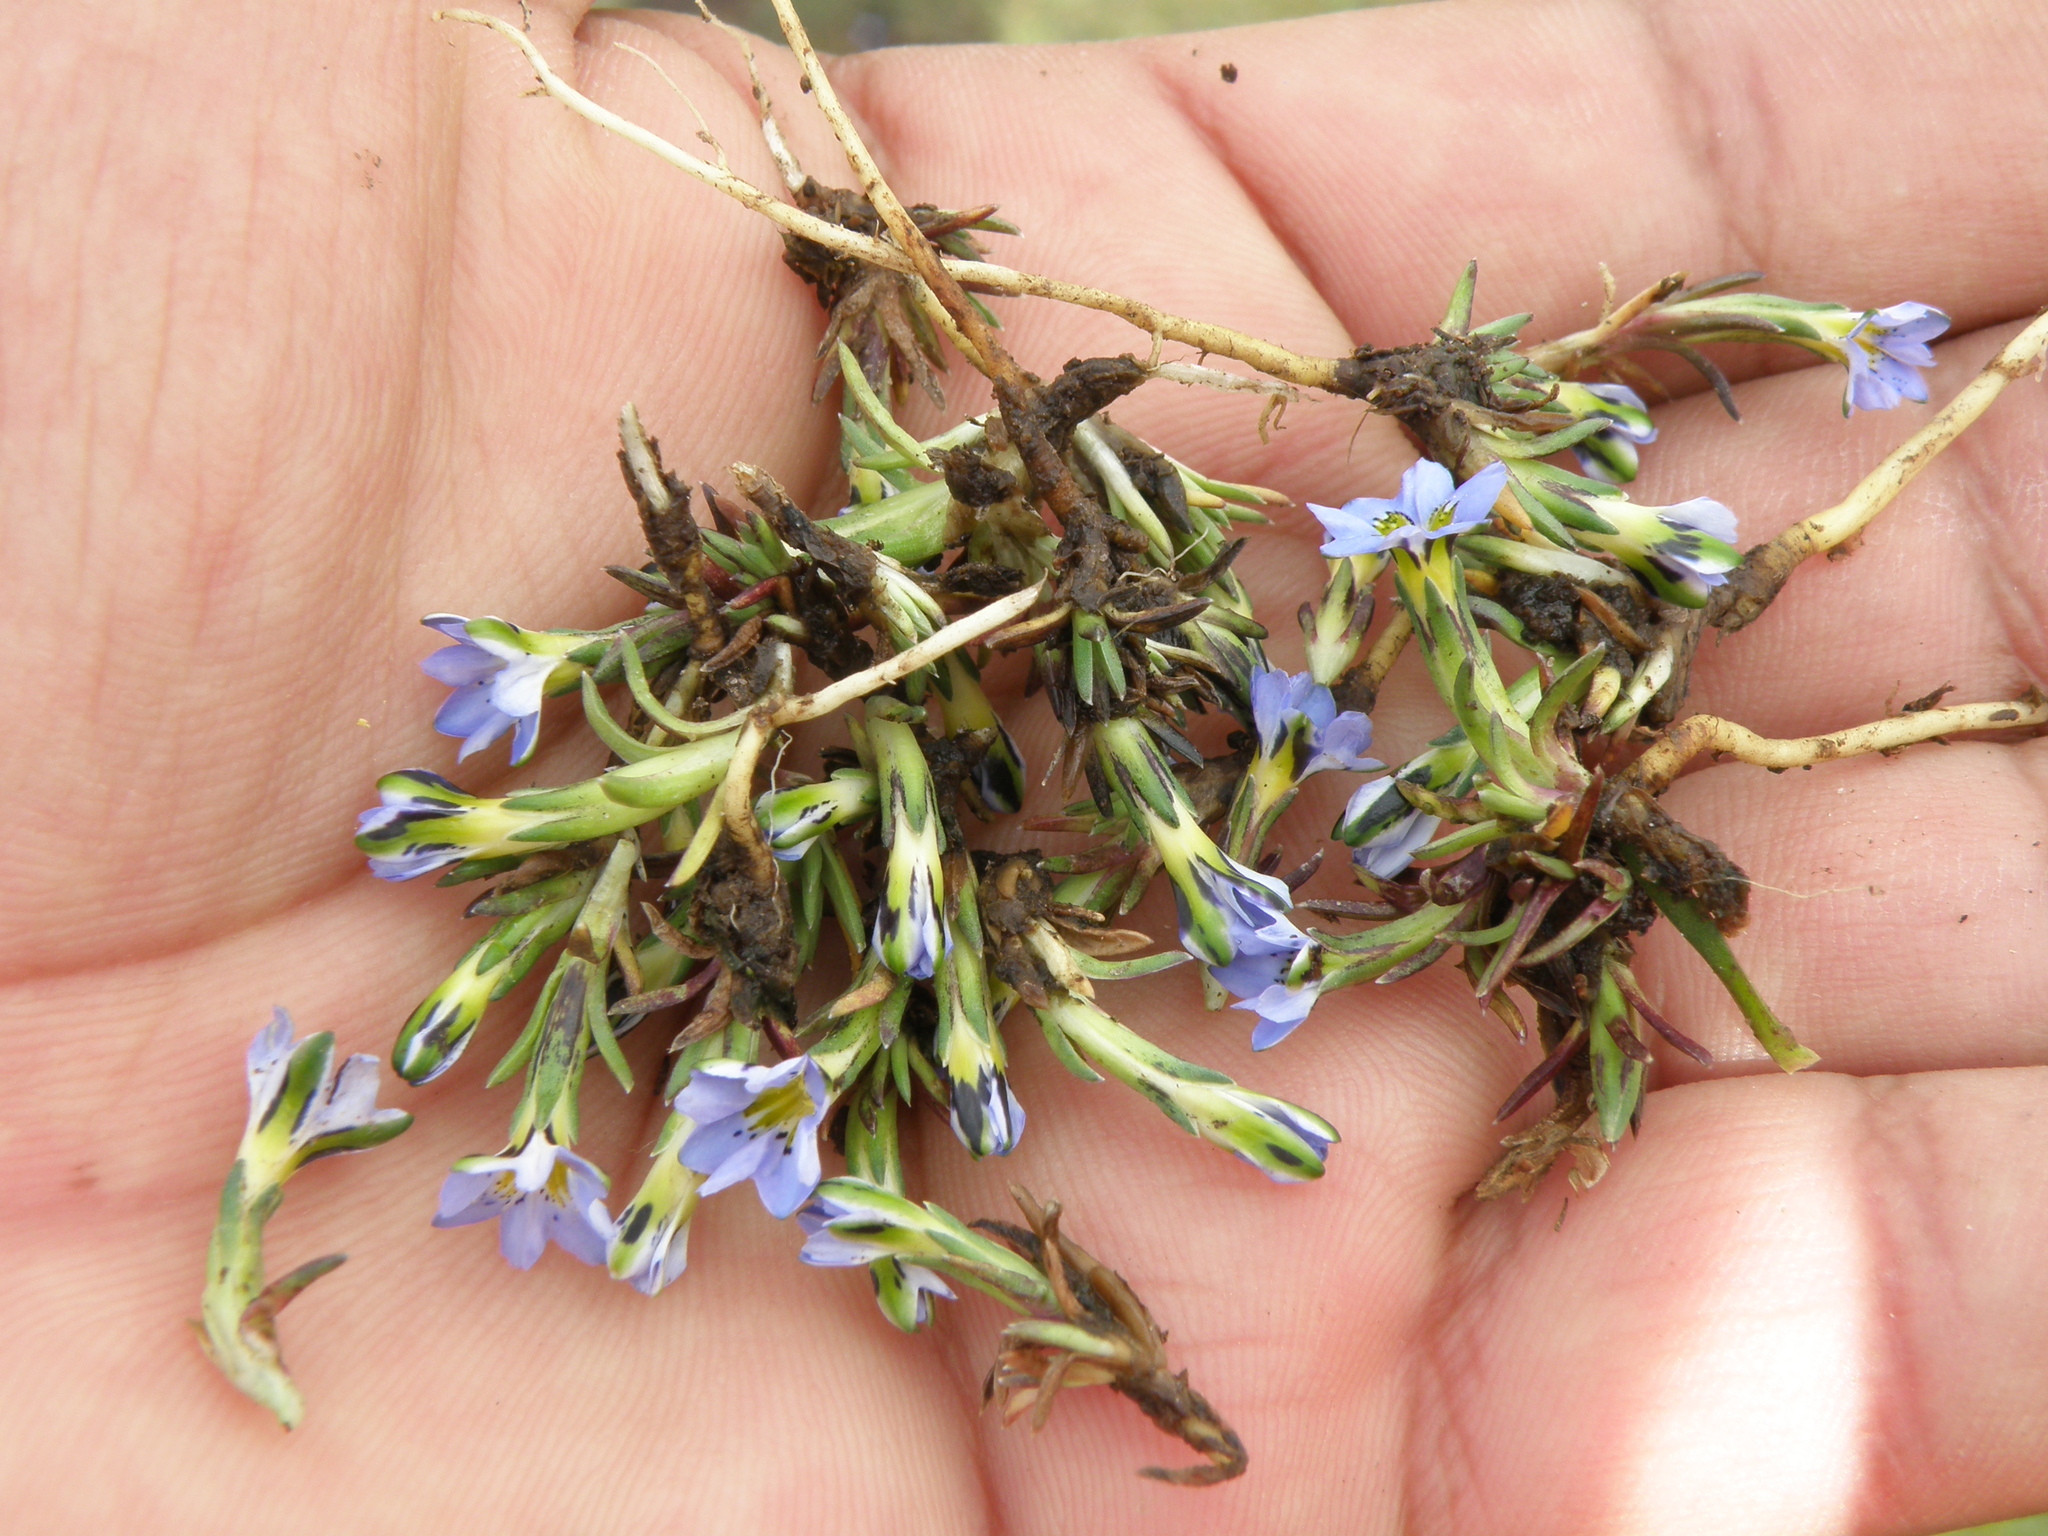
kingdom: Plantae
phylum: Tracheophyta
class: Magnoliopsida
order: Gentianales
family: Gentianaceae
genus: Gentiana
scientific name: Gentiana sedifolia
